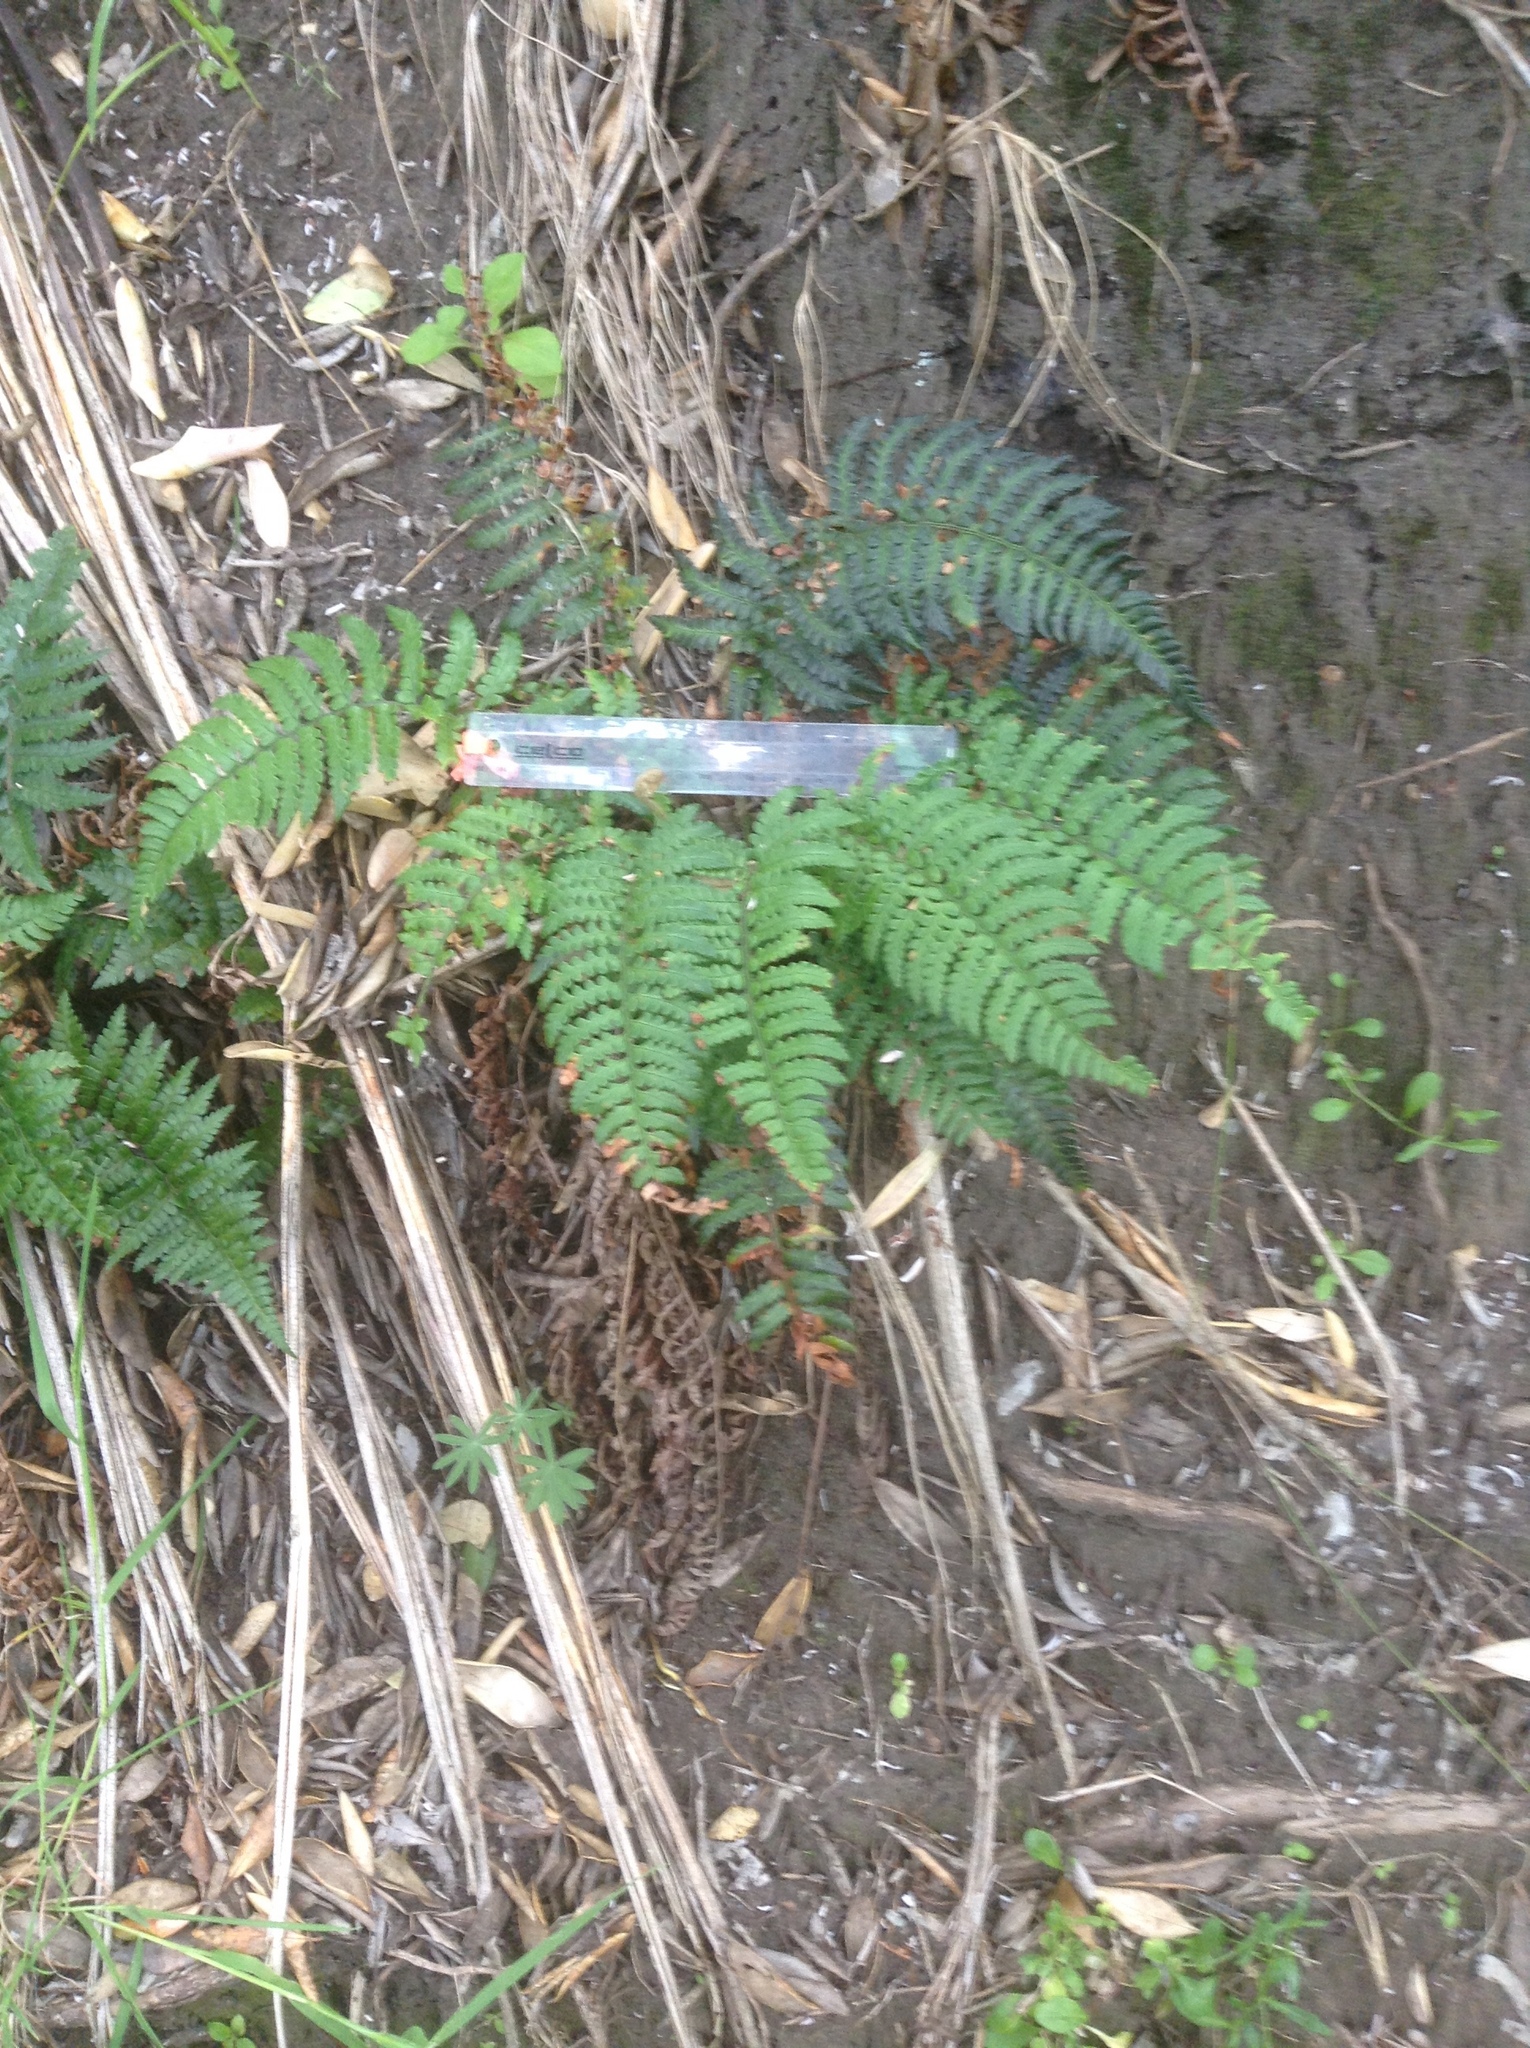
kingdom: Plantae
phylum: Tracheophyta
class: Polypodiopsida
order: Polypodiales
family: Dryopteridaceae
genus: Polystichum
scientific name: Polystichum wawranum
